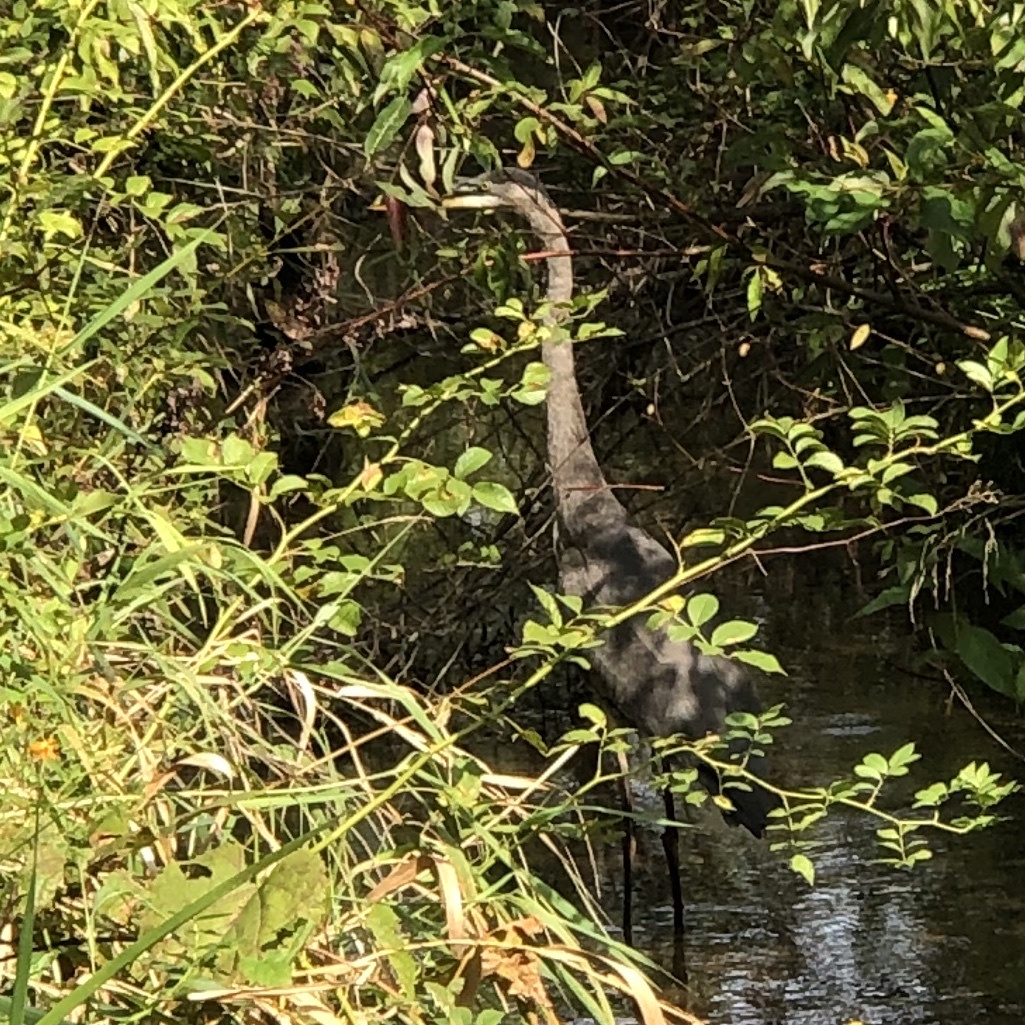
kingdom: Animalia
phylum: Chordata
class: Aves
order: Pelecaniformes
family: Ardeidae
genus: Ardea
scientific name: Ardea herodias
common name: Great blue heron
